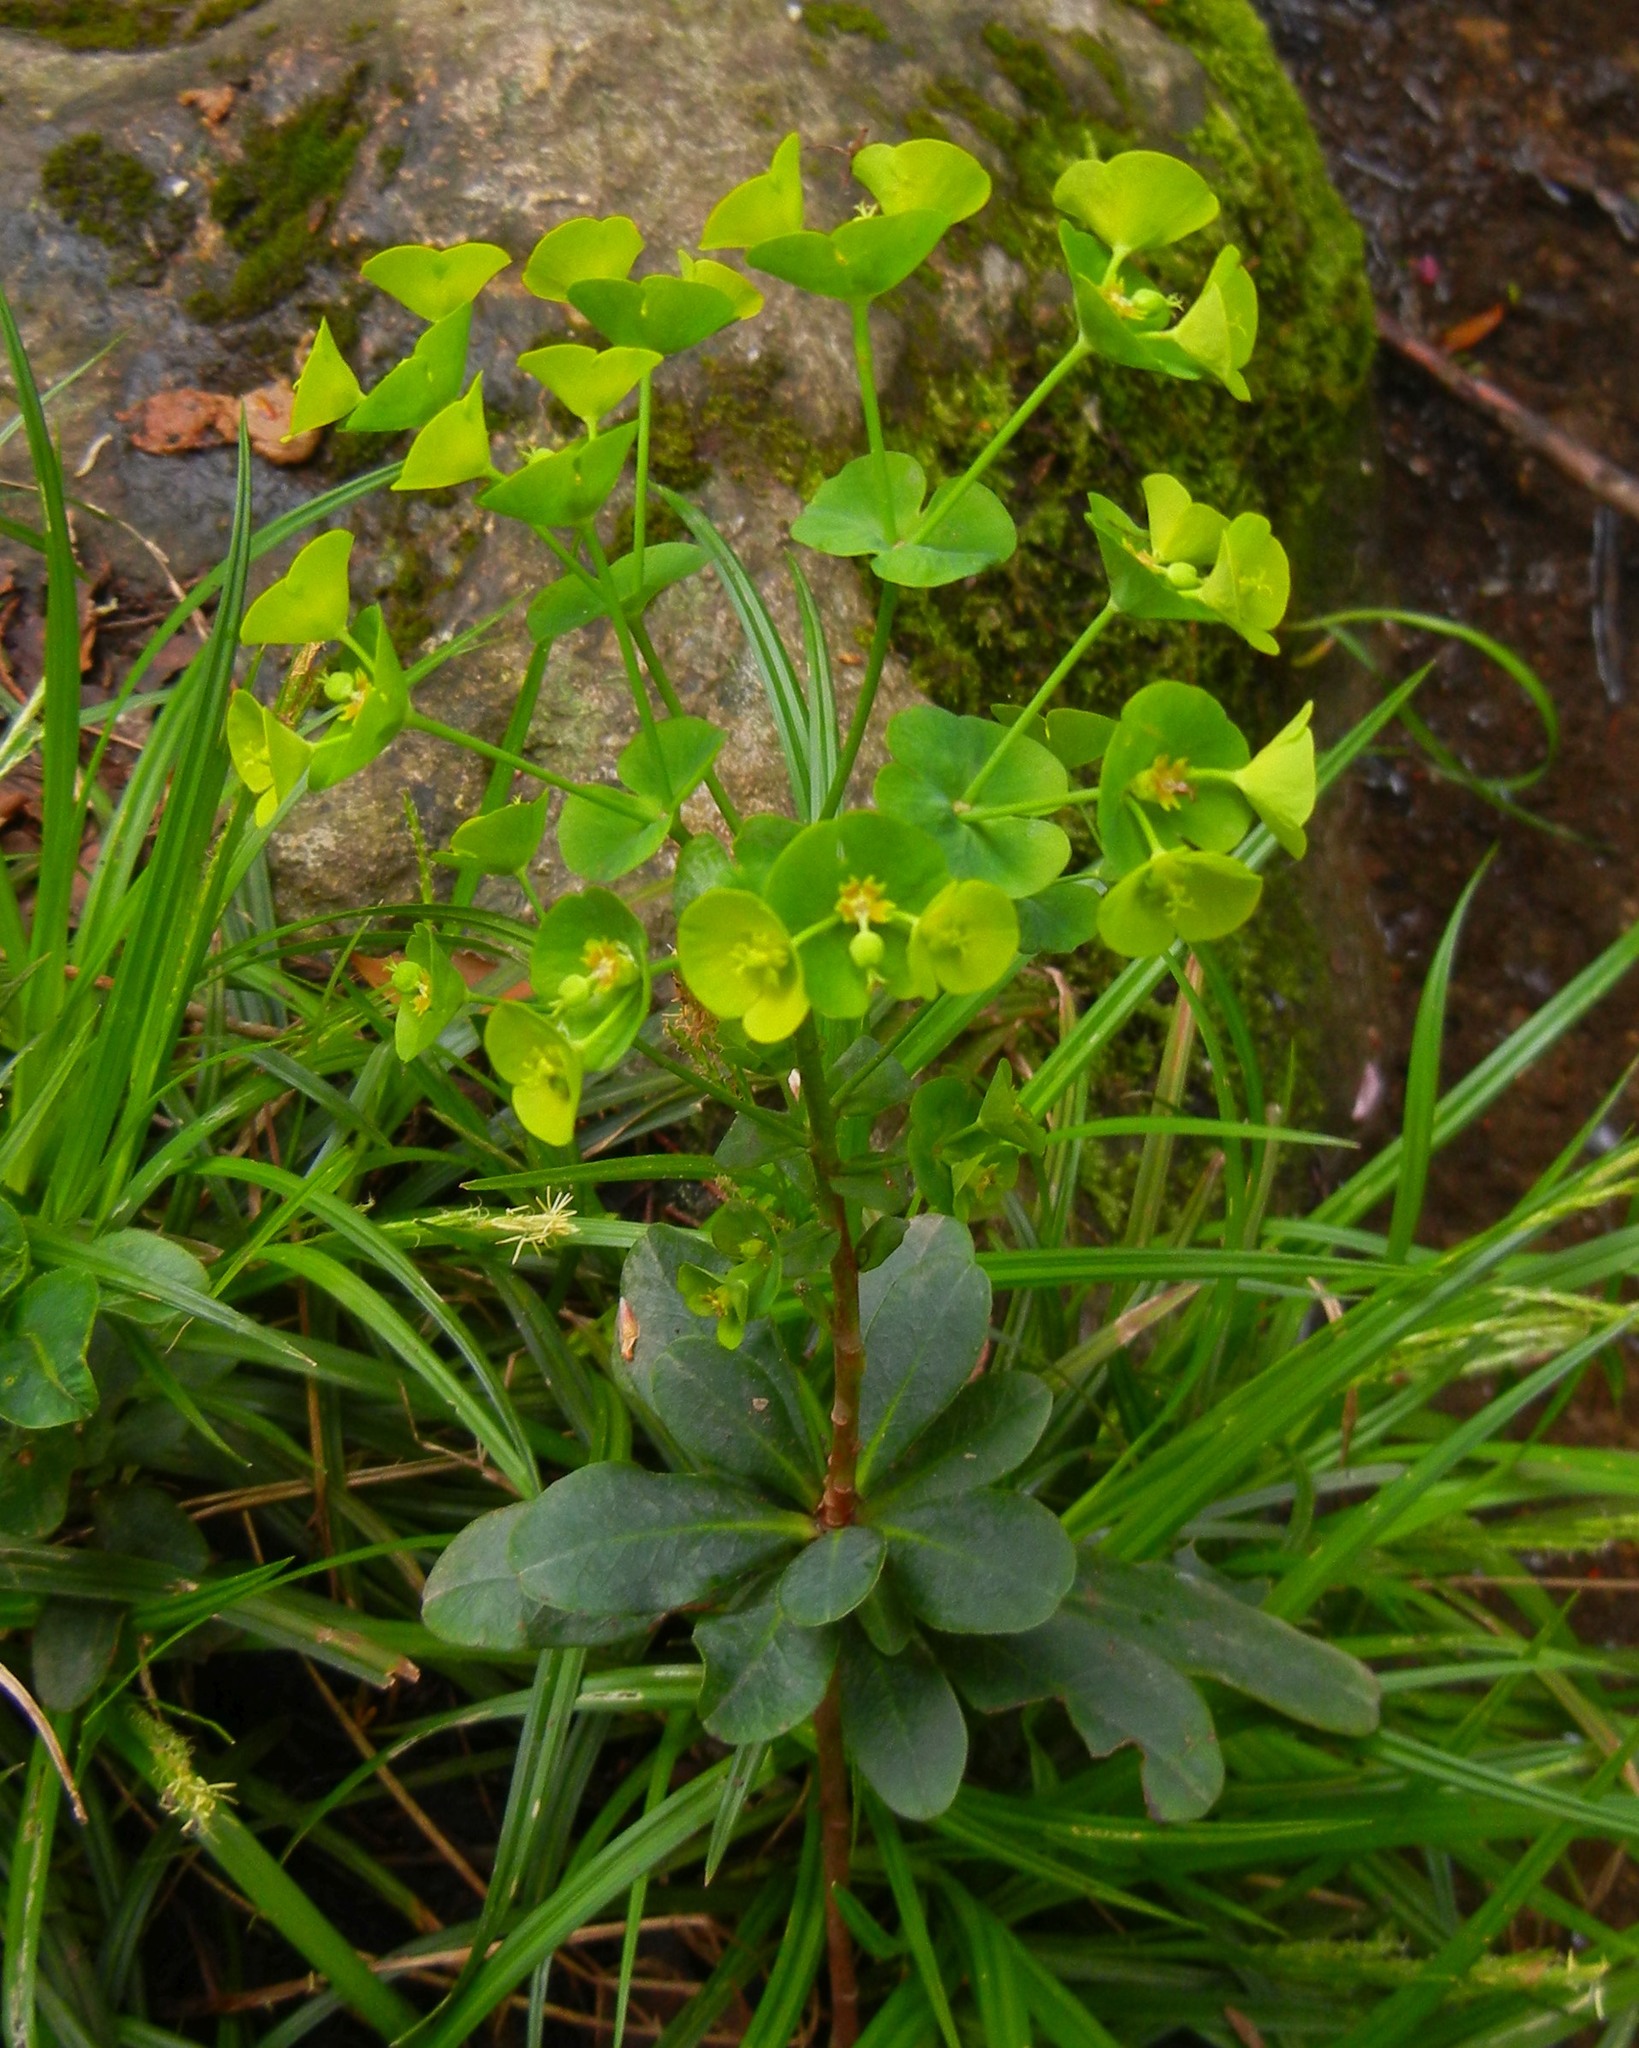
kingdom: Plantae
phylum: Tracheophyta
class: Magnoliopsida
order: Malpighiales
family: Euphorbiaceae
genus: Euphorbia
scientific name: Euphorbia amygdaloides
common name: Wood spurge
